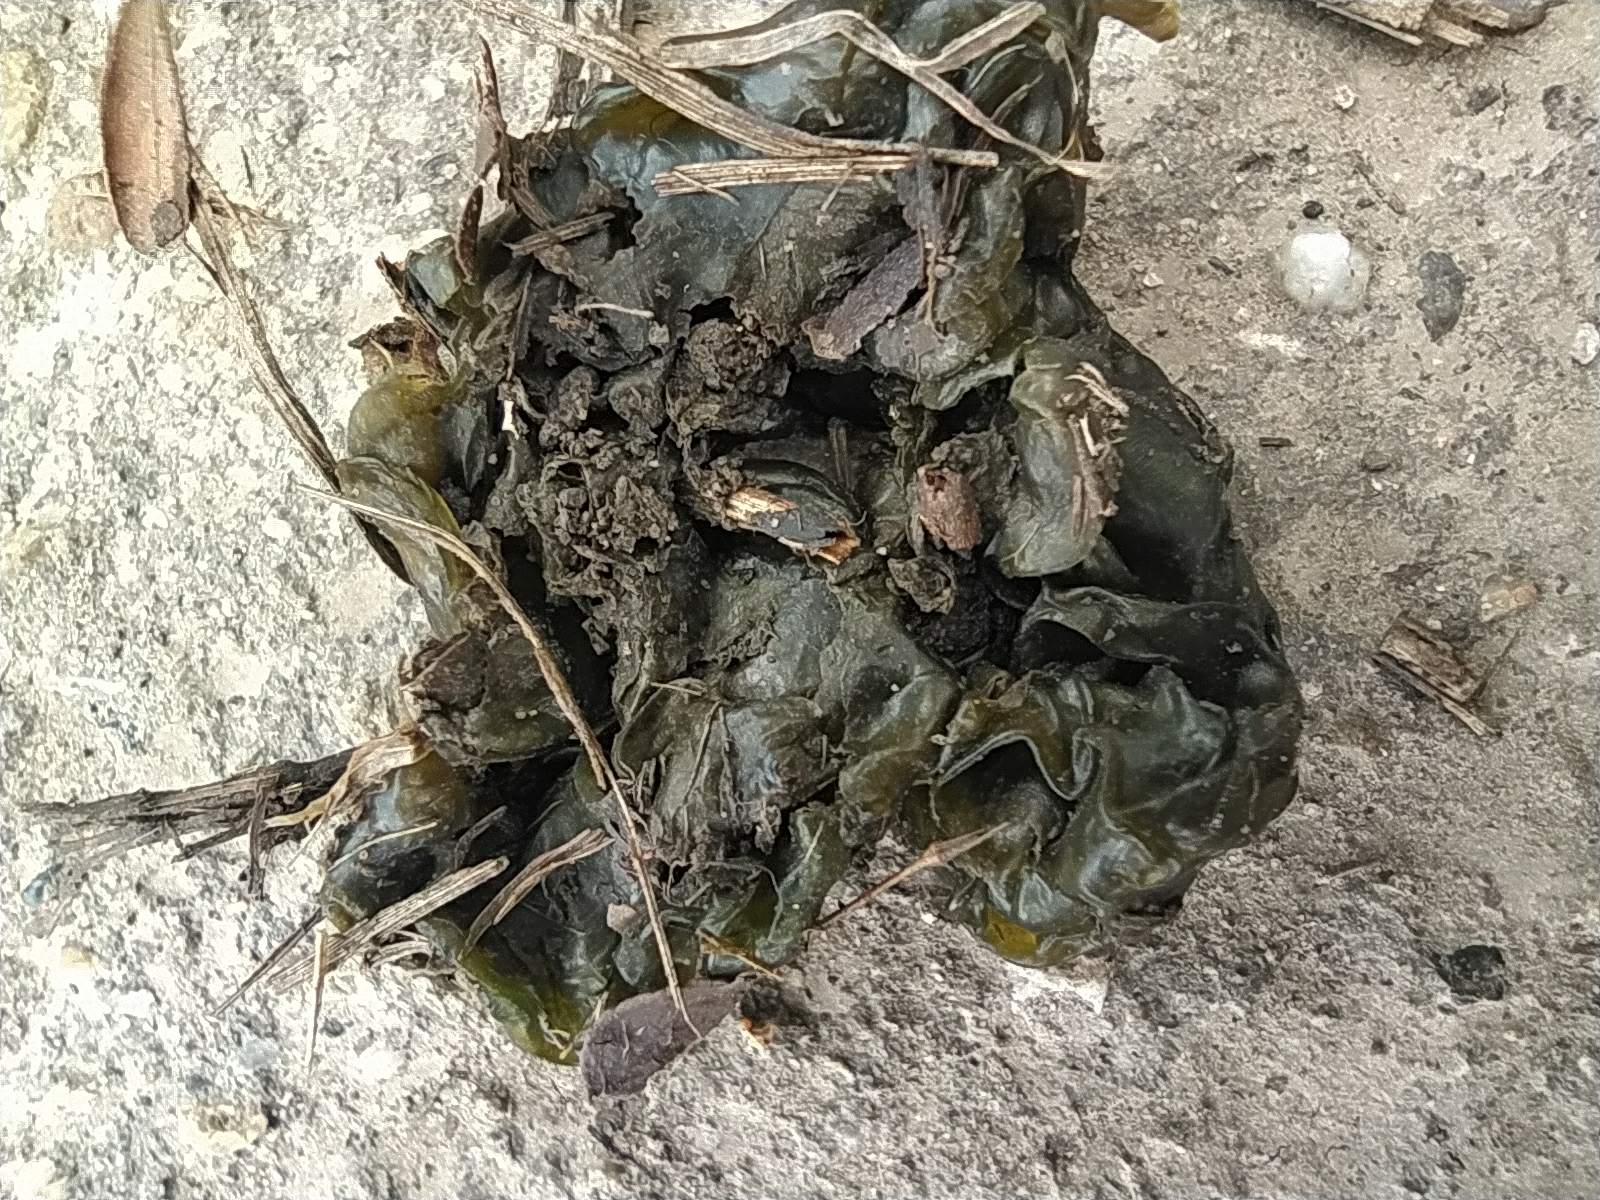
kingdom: Bacteria
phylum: Cyanobacteria
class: Cyanobacteriia
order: Cyanobacteriales
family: Nostocaceae
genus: Nostoc
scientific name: Nostoc commune
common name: Star jelly
